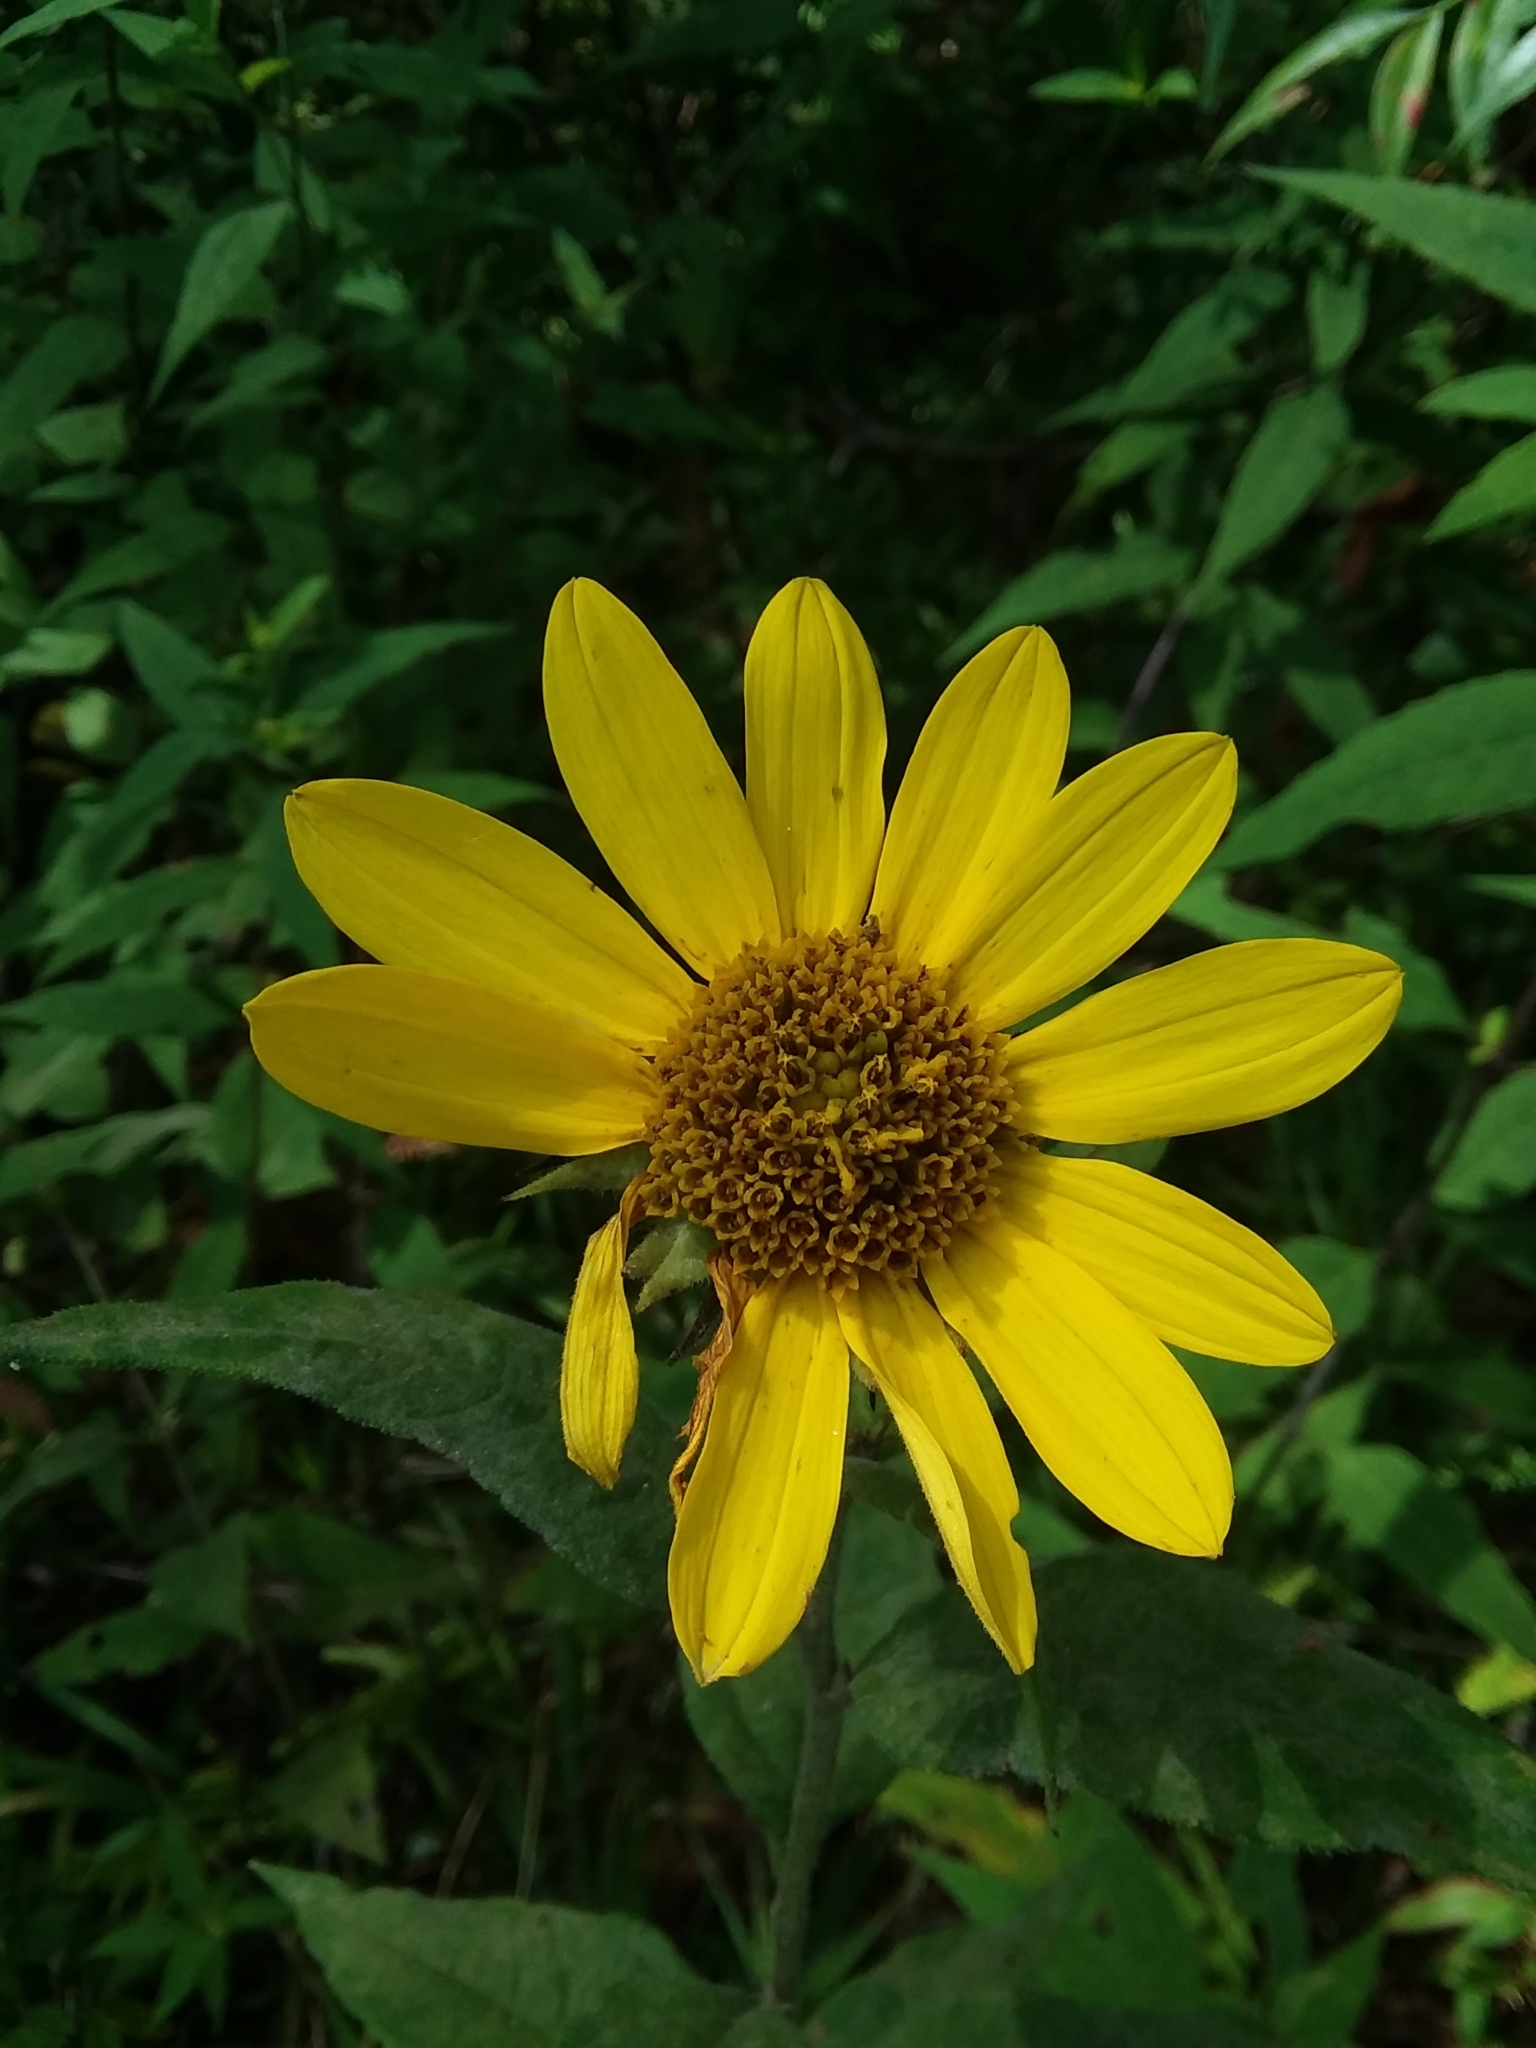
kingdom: Plantae
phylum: Tracheophyta
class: Magnoliopsida
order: Asterales
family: Asteraceae
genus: Helianthus
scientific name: Helianthus hirsutus
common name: Hairy sunflower
